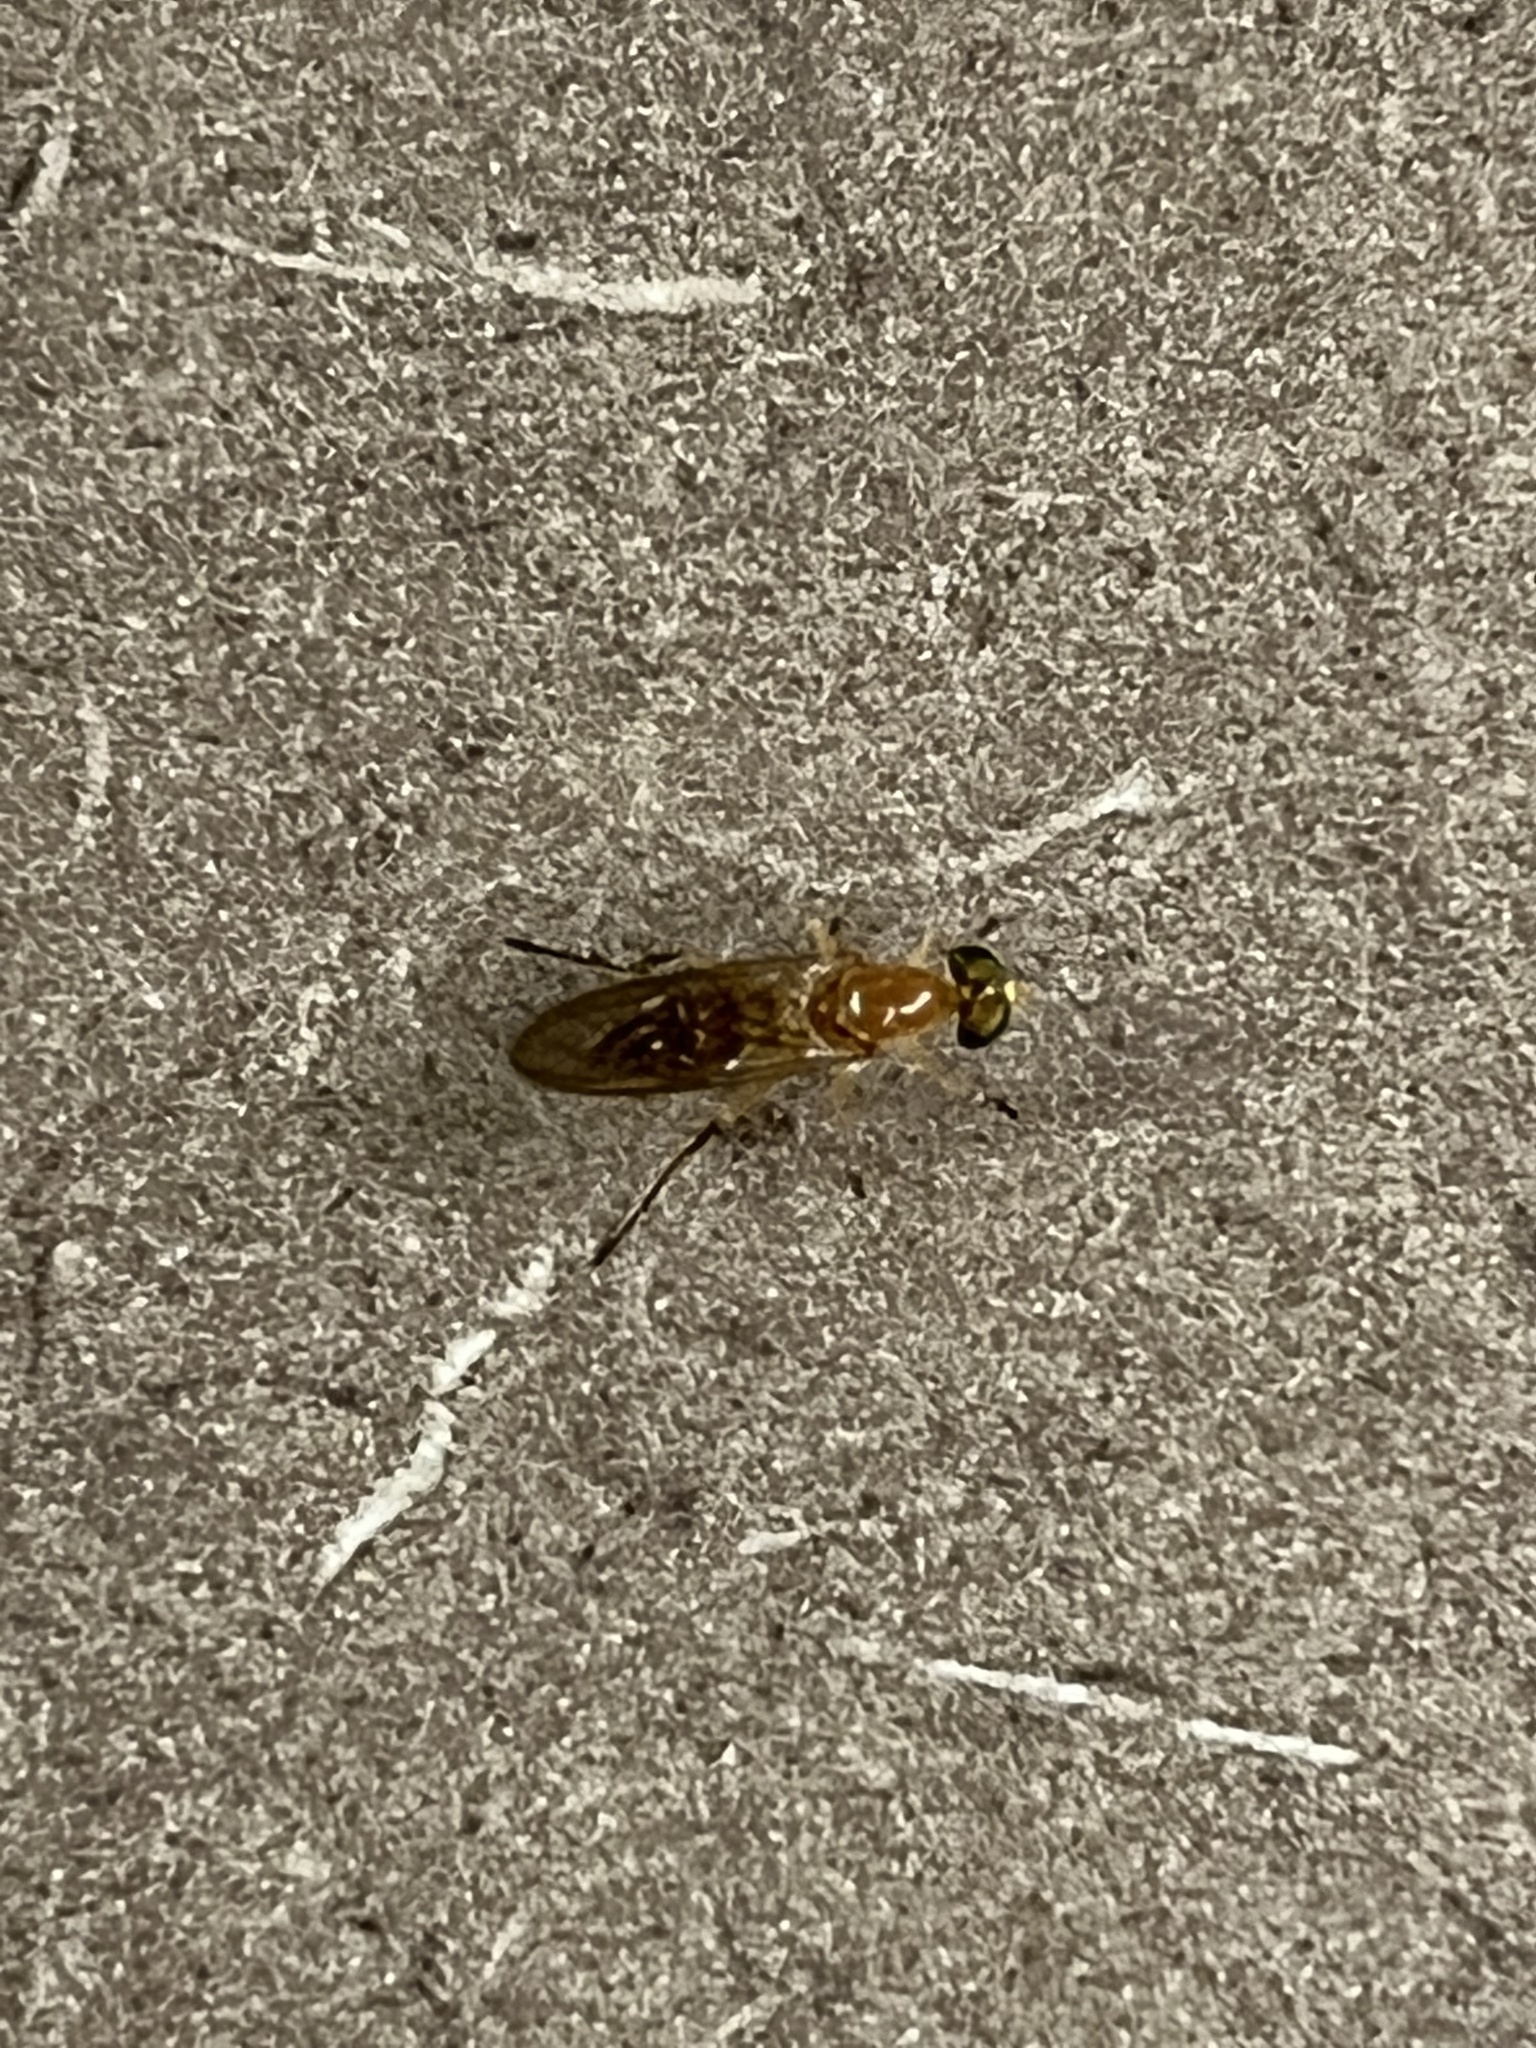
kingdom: Animalia
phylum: Arthropoda
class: Insecta
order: Diptera
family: Stratiomyidae
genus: Ptecticus
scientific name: Ptecticus trivittatus
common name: Compost fly
